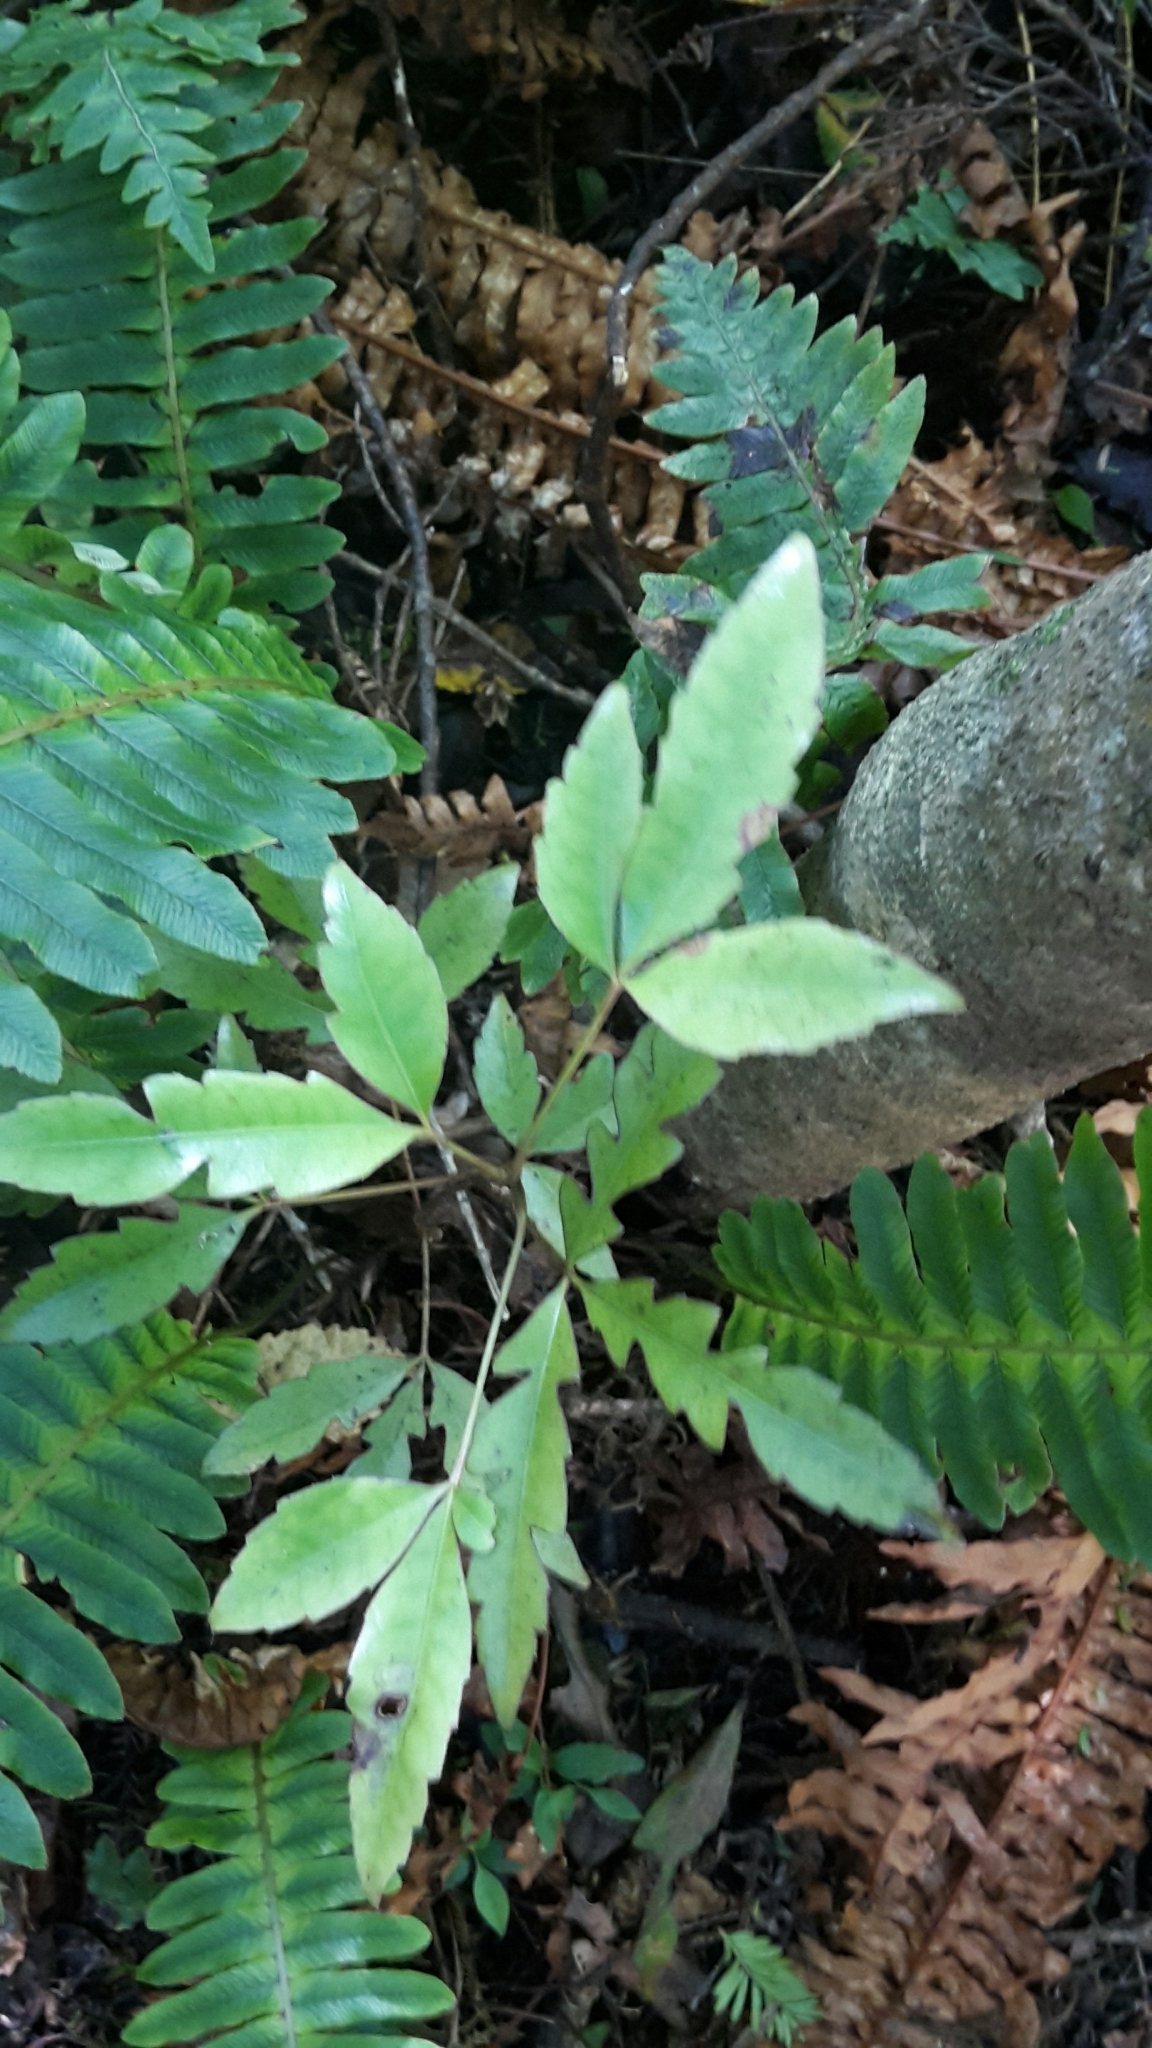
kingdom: Plantae
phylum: Tracheophyta
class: Magnoliopsida
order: Apiales
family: Araliaceae
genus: Raukaua
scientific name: Raukaua edgerleyi
